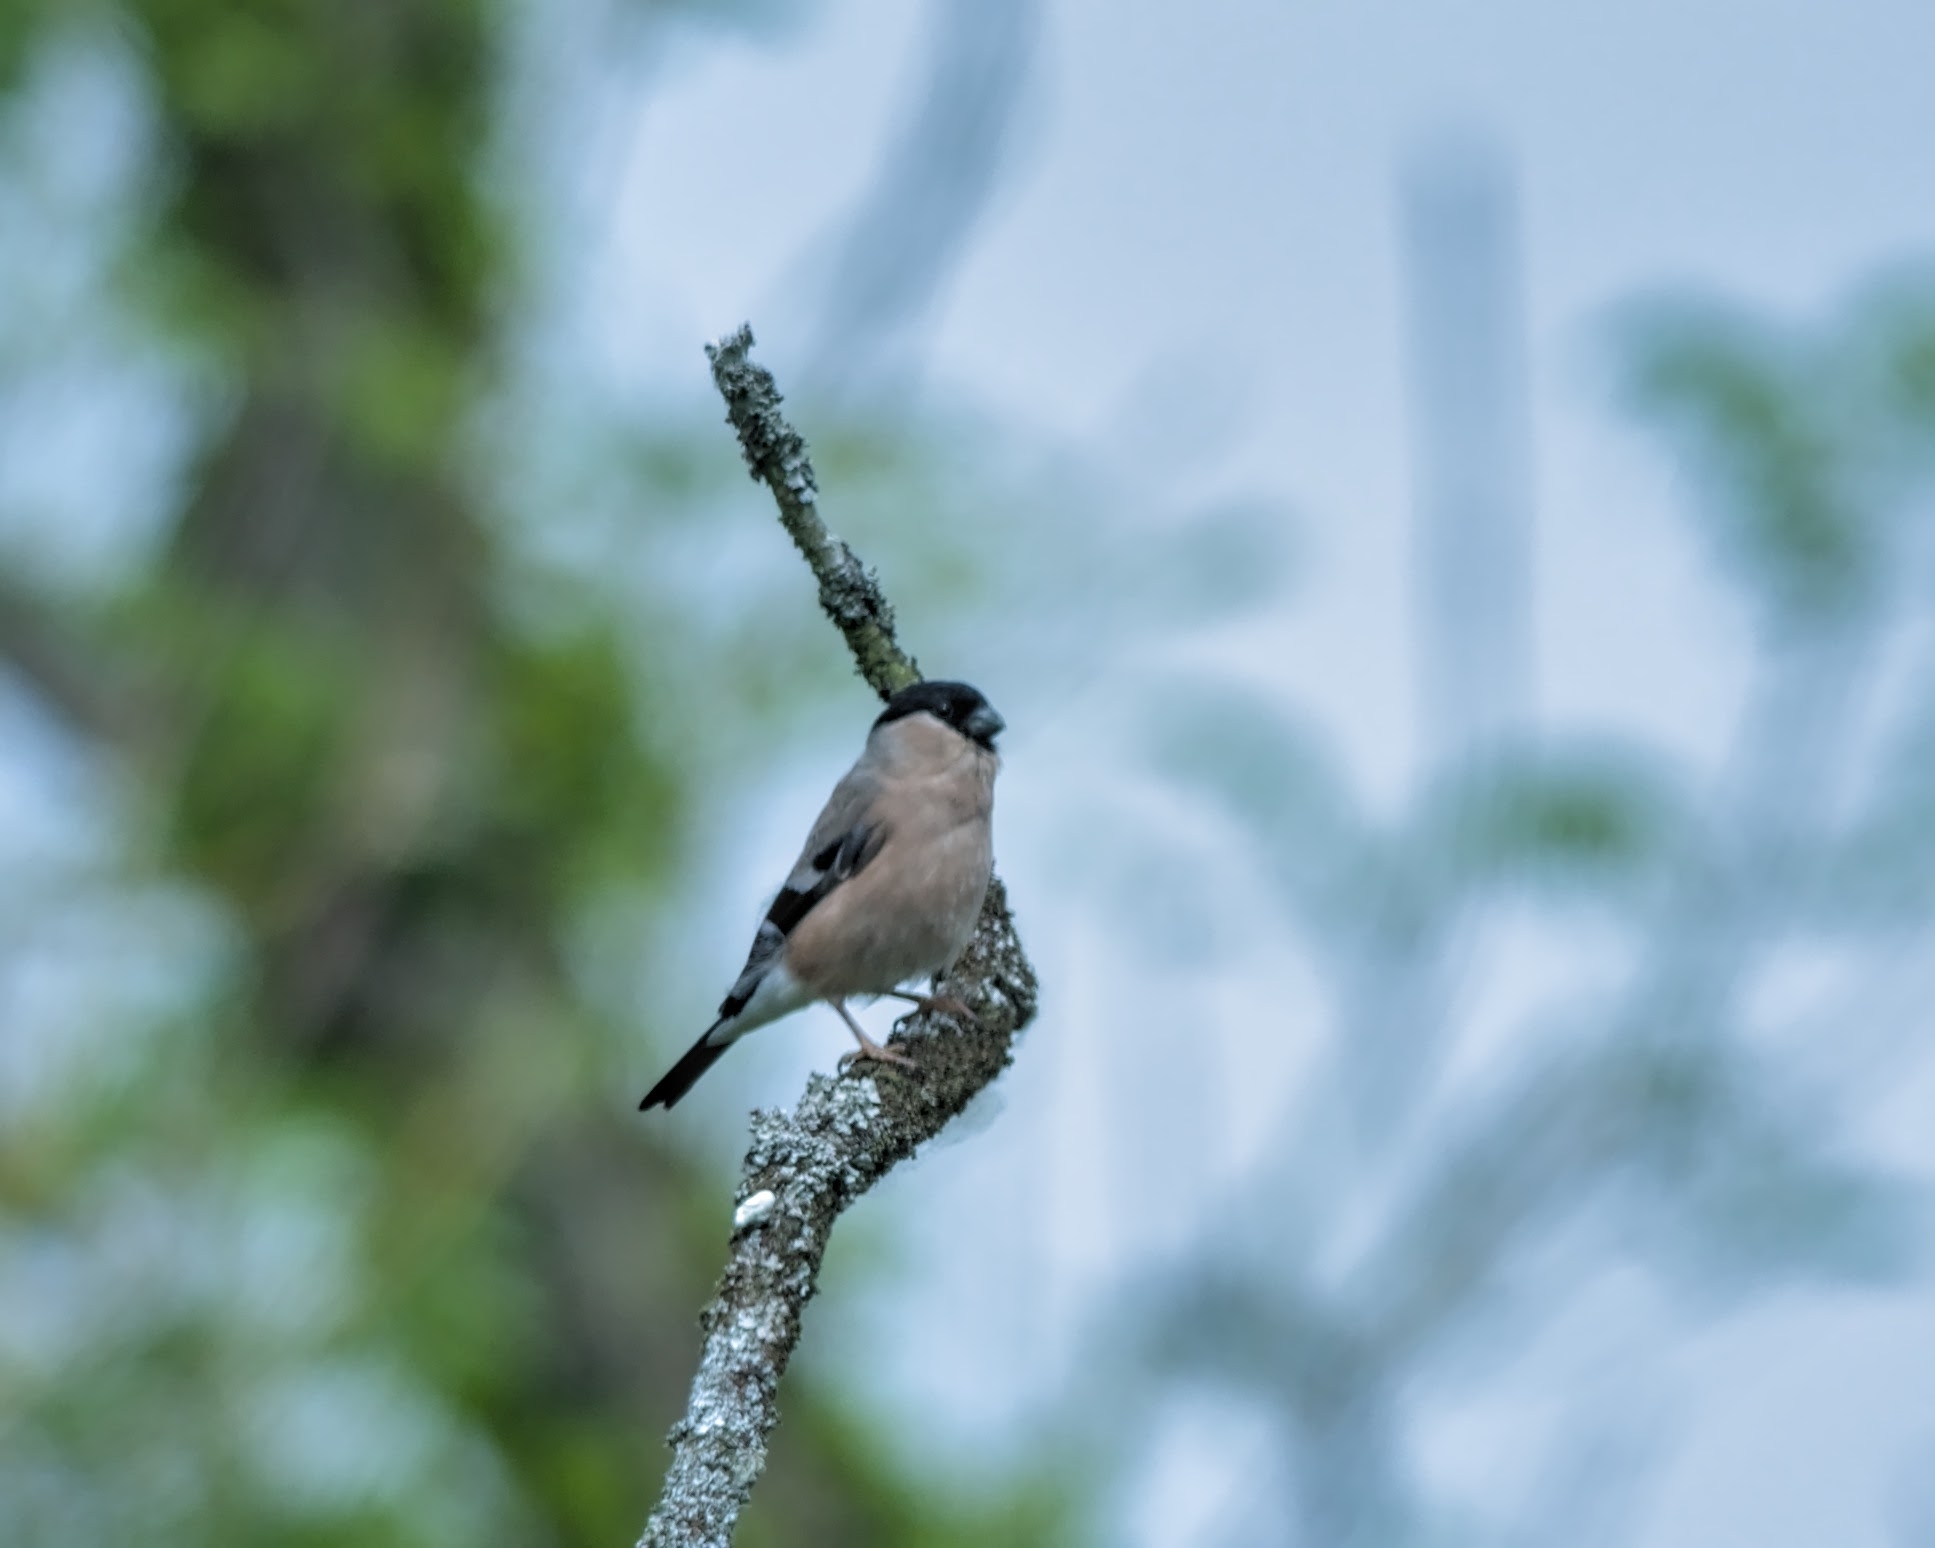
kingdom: Animalia
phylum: Chordata
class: Aves
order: Passeriformes
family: Fringillidae
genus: Pyrrhula
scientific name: Pyrrhula pyrrhula
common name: Eurasian bullfinch
